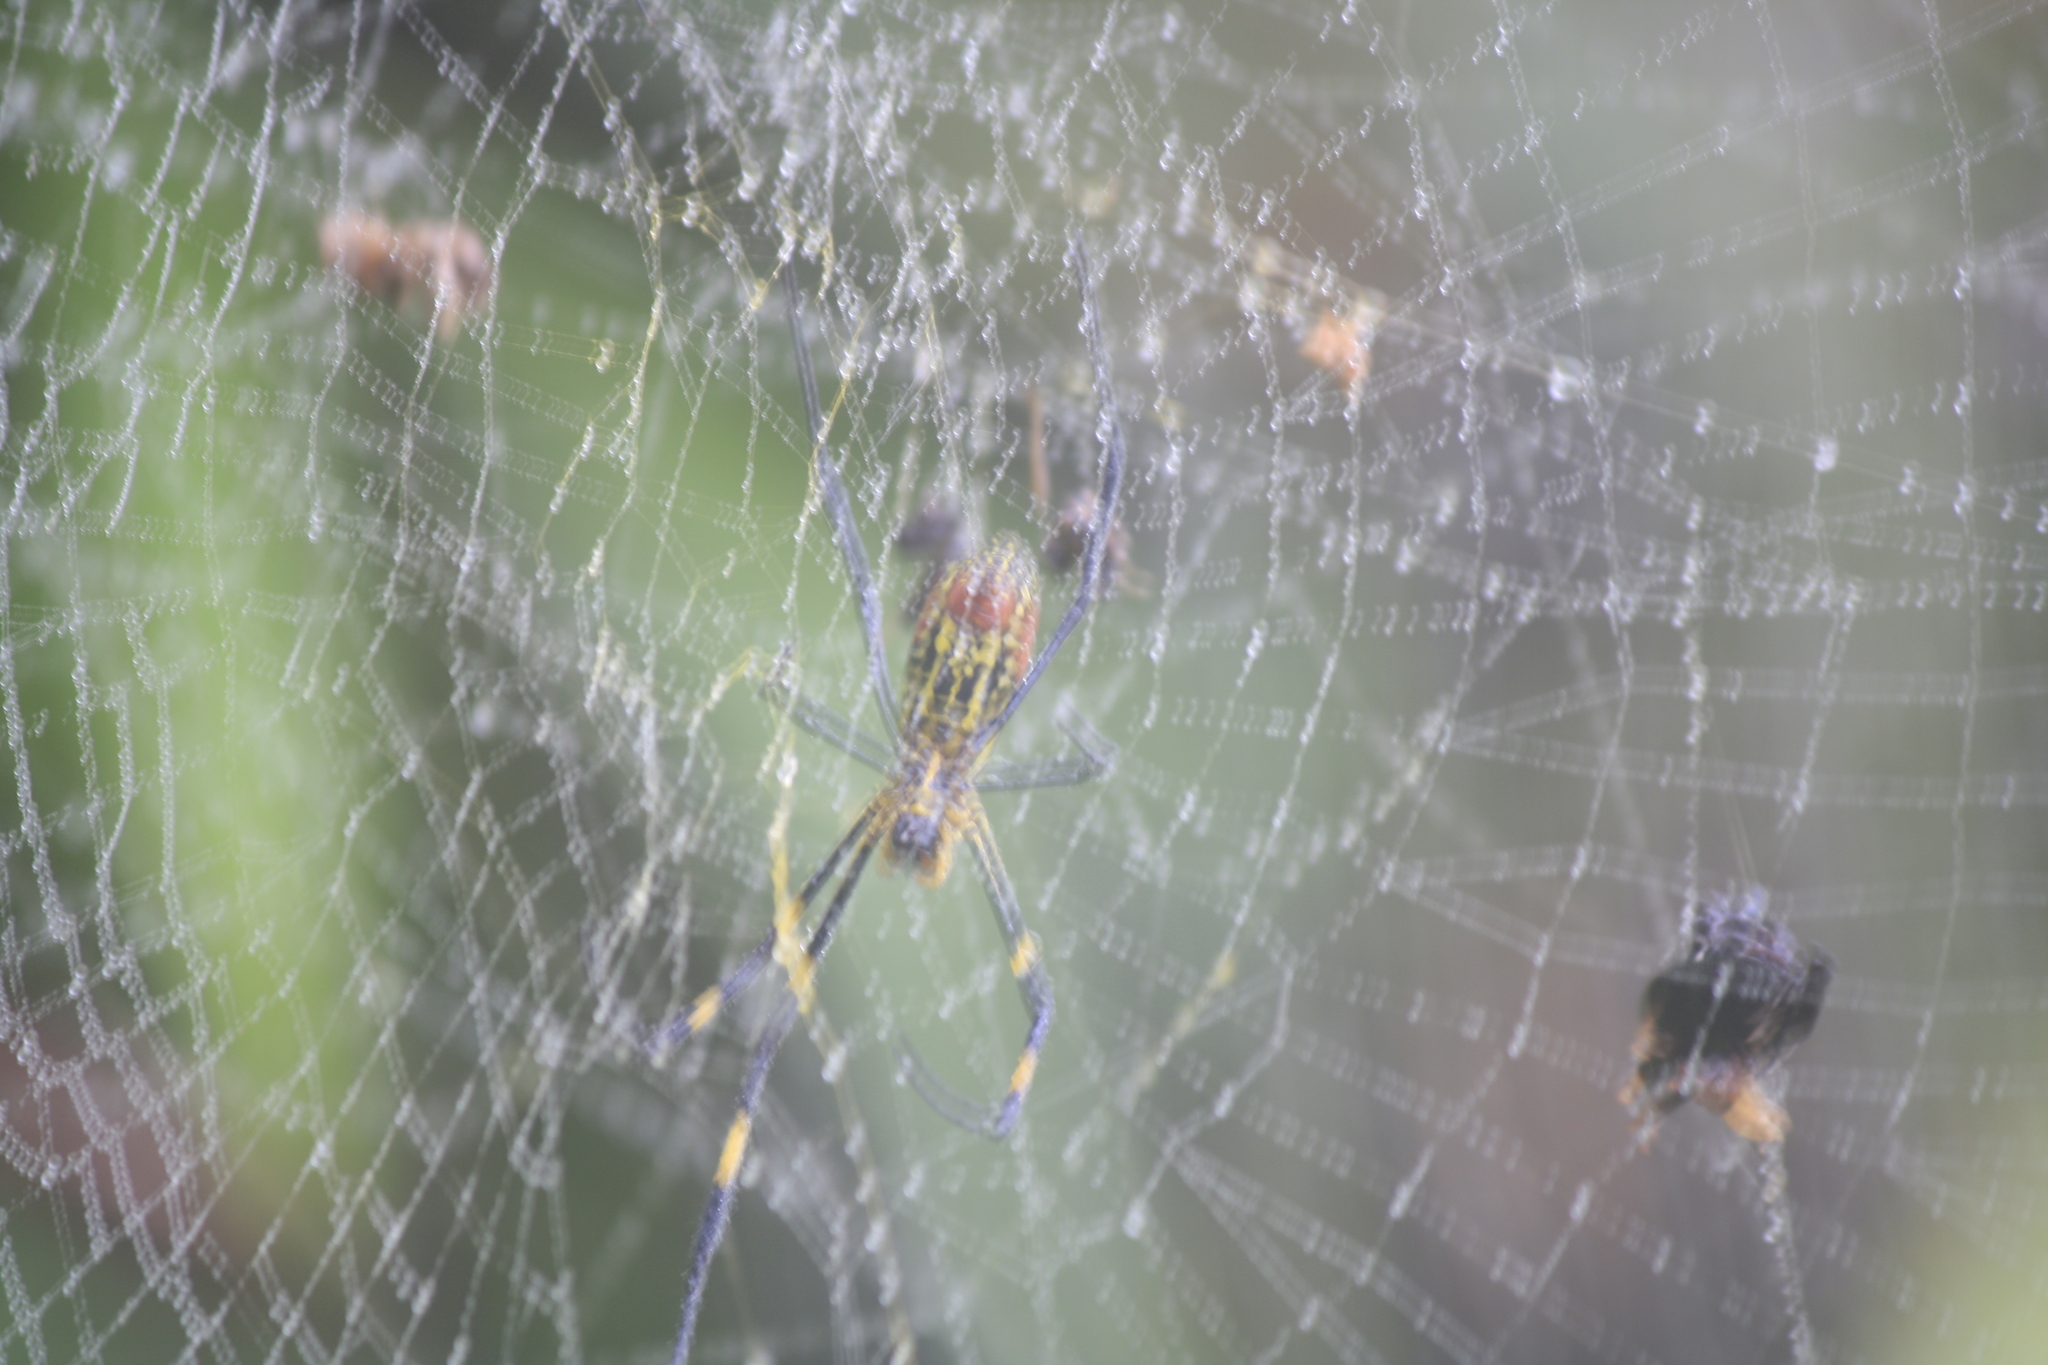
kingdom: Animalia
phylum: Arthropoda
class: Arachnida
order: Araneae
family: Araneidae
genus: Trichonephila
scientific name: Trichonephila clavata
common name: Jorō spider
